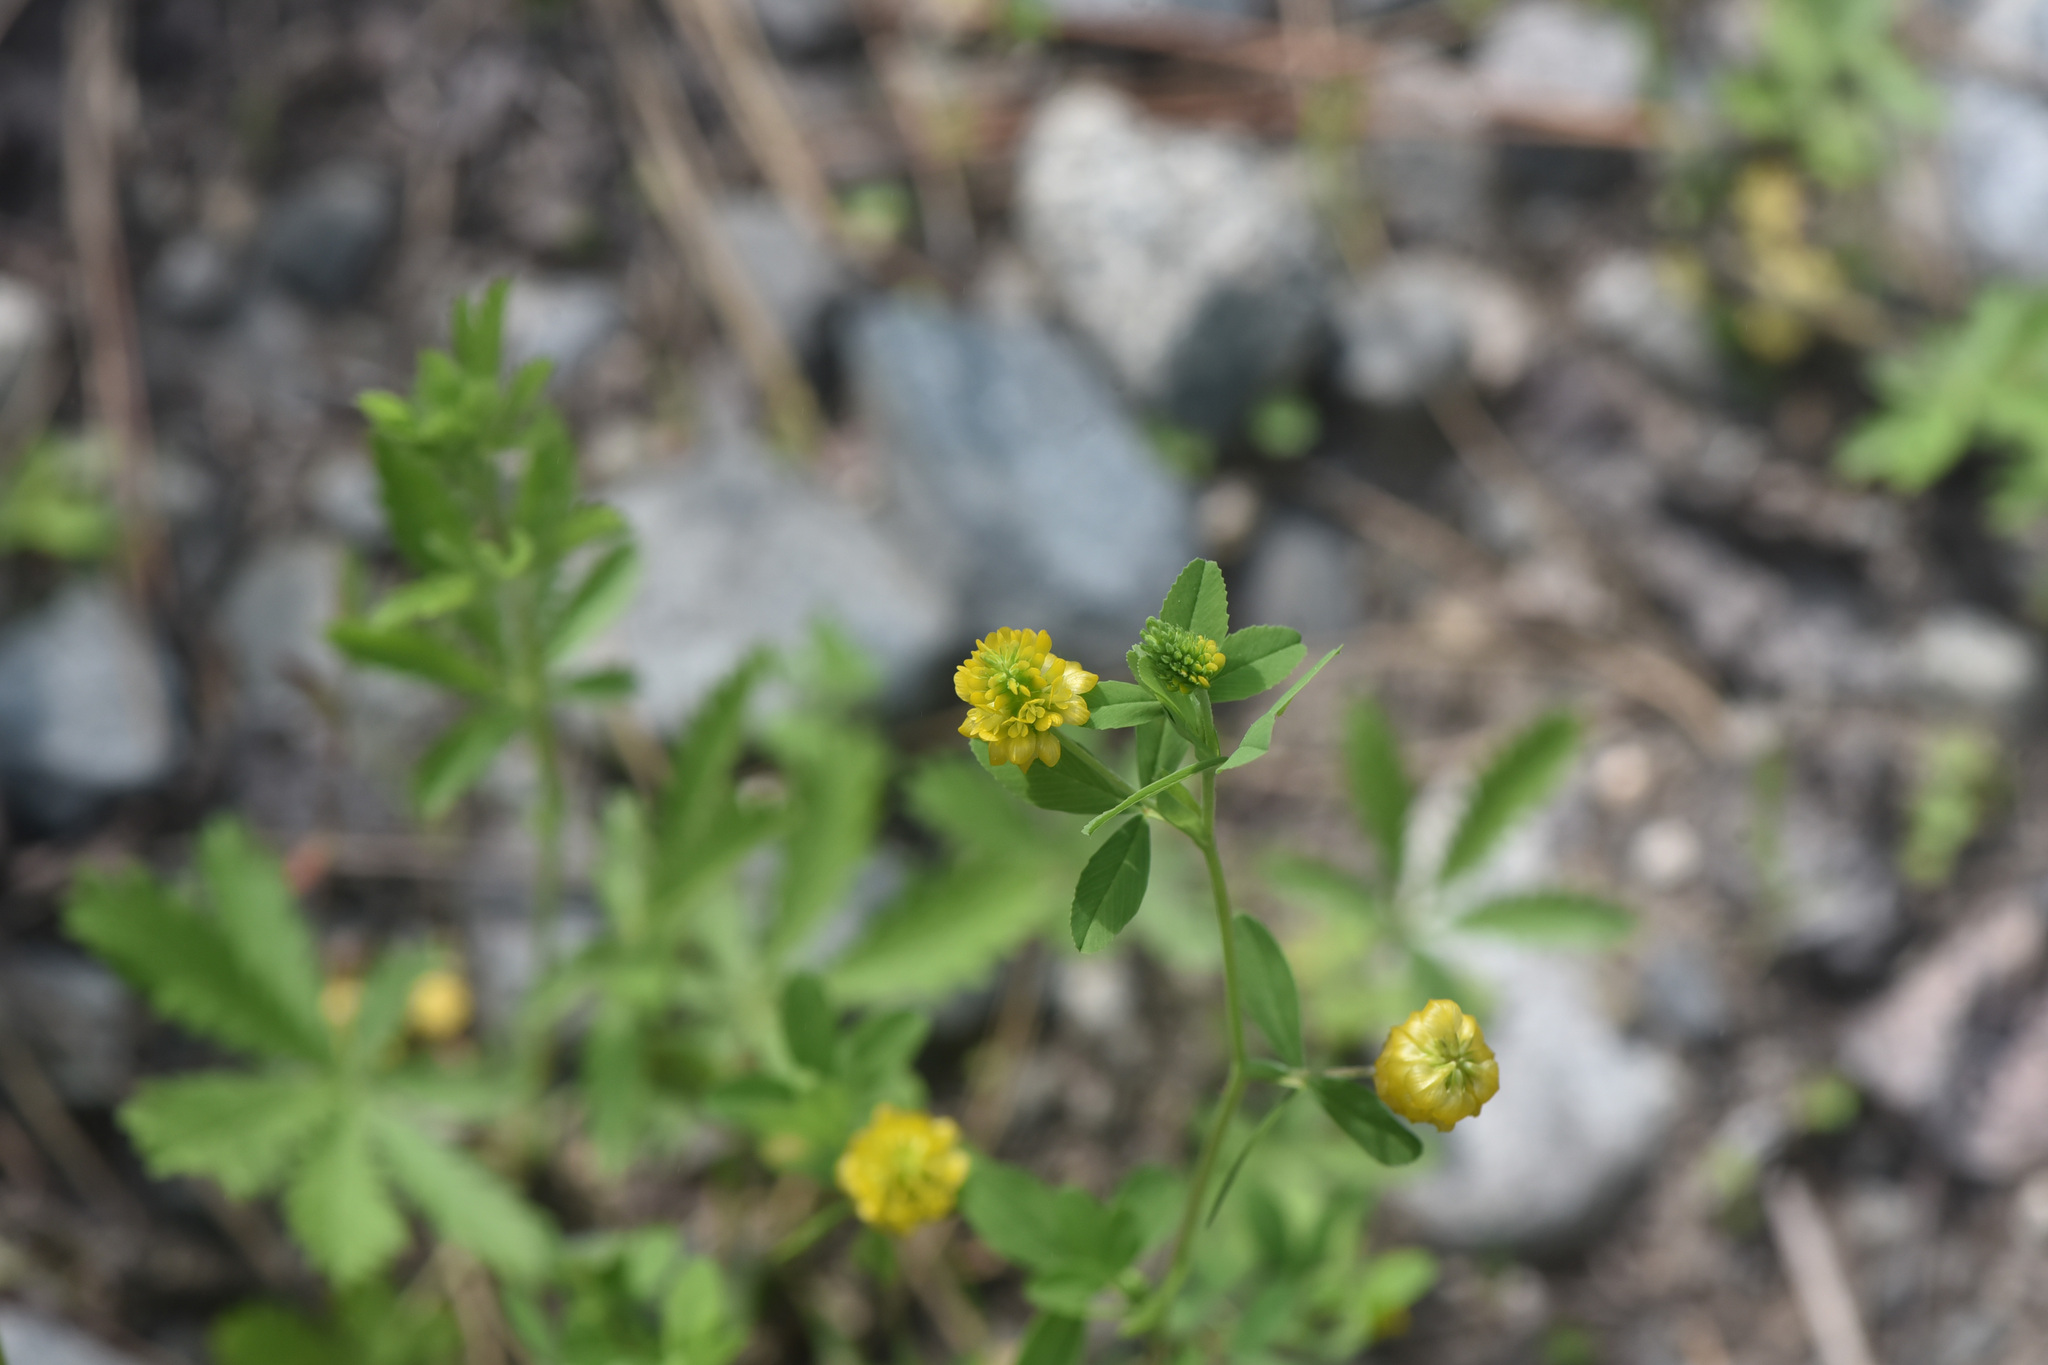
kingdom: Plantae
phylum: Tracheophyta
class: Magnoliopsida
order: Fabales
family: Fabaceae
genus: Trifolium
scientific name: Trifolium aureum
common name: Golden clover
